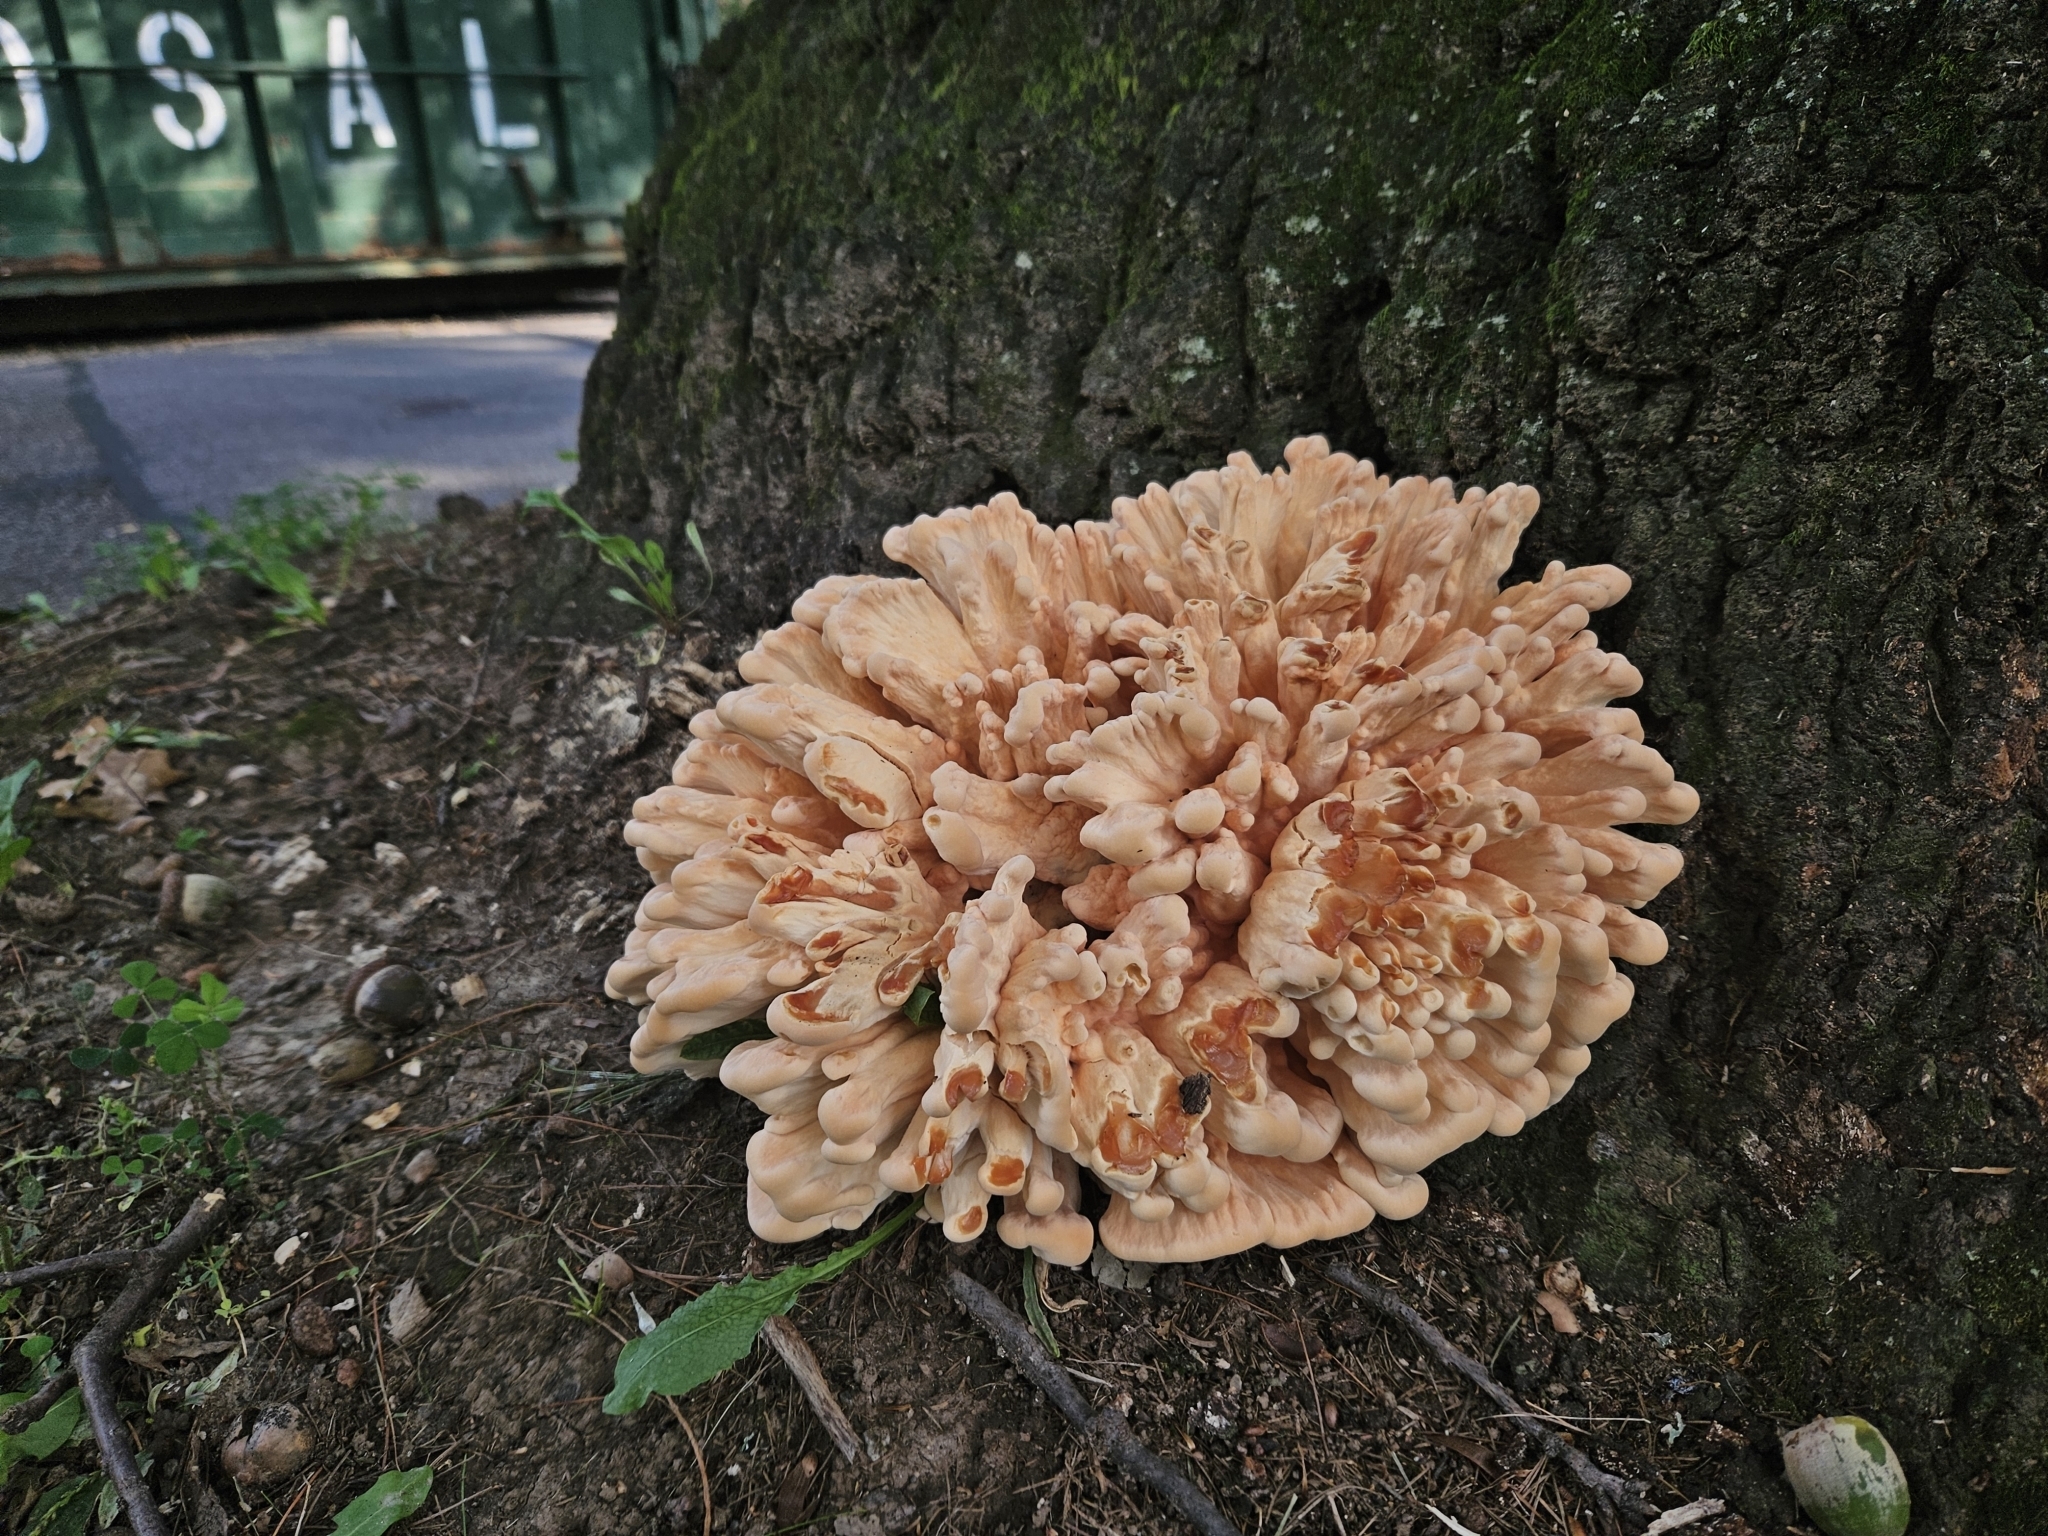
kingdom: Fungi
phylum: Basidiomycota
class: Agaricomycetes
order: Polyporales
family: Laetiporaceae
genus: Laetiporus
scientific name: Laetiporus sulphureus
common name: Chicken of the woods
